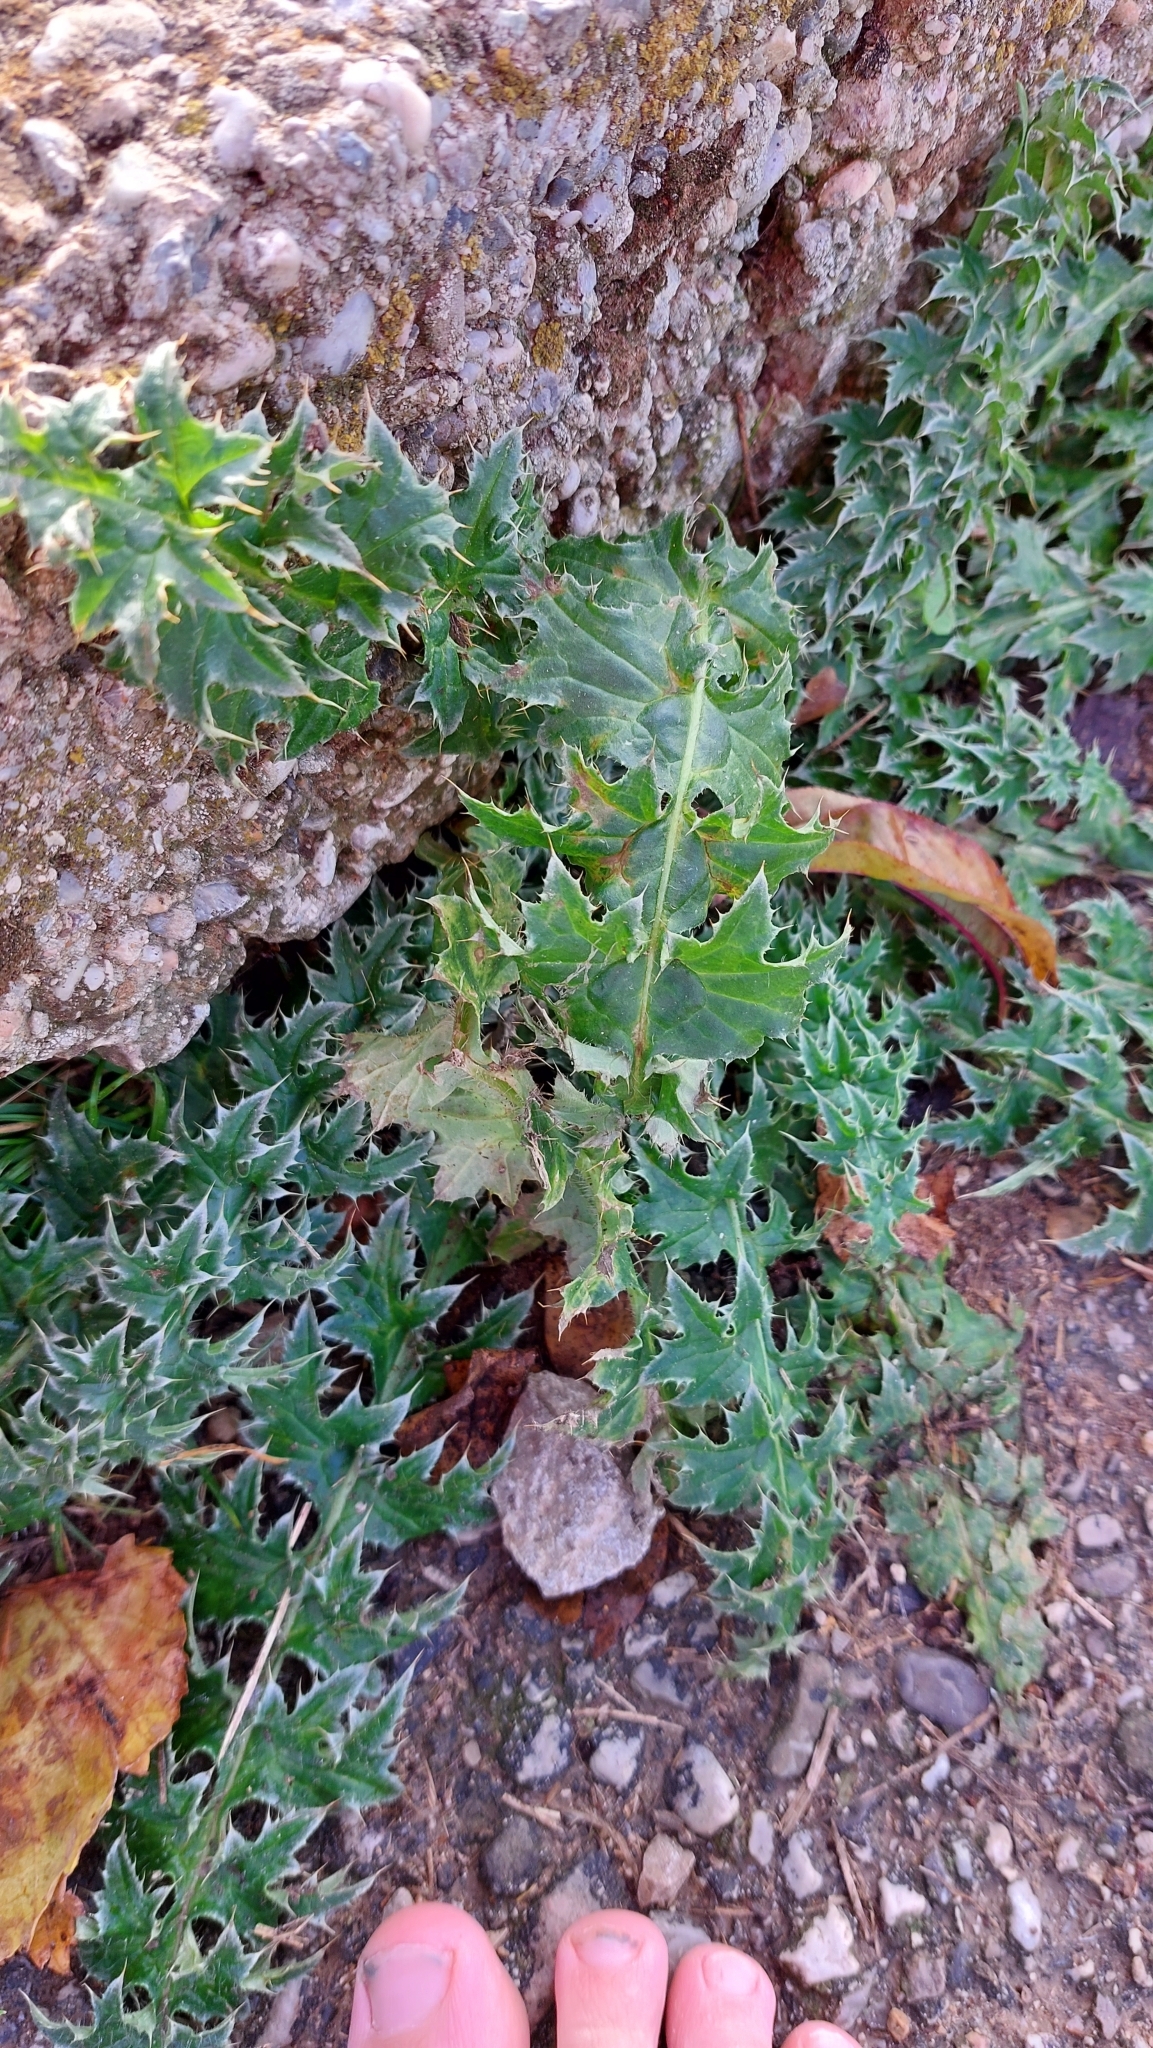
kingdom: Plantae
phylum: Tracheophyta
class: Magnoliopsida
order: Asterales
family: Asteraceae
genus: Carduus
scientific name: Carduus acanthoides
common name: Plumeless thistle
